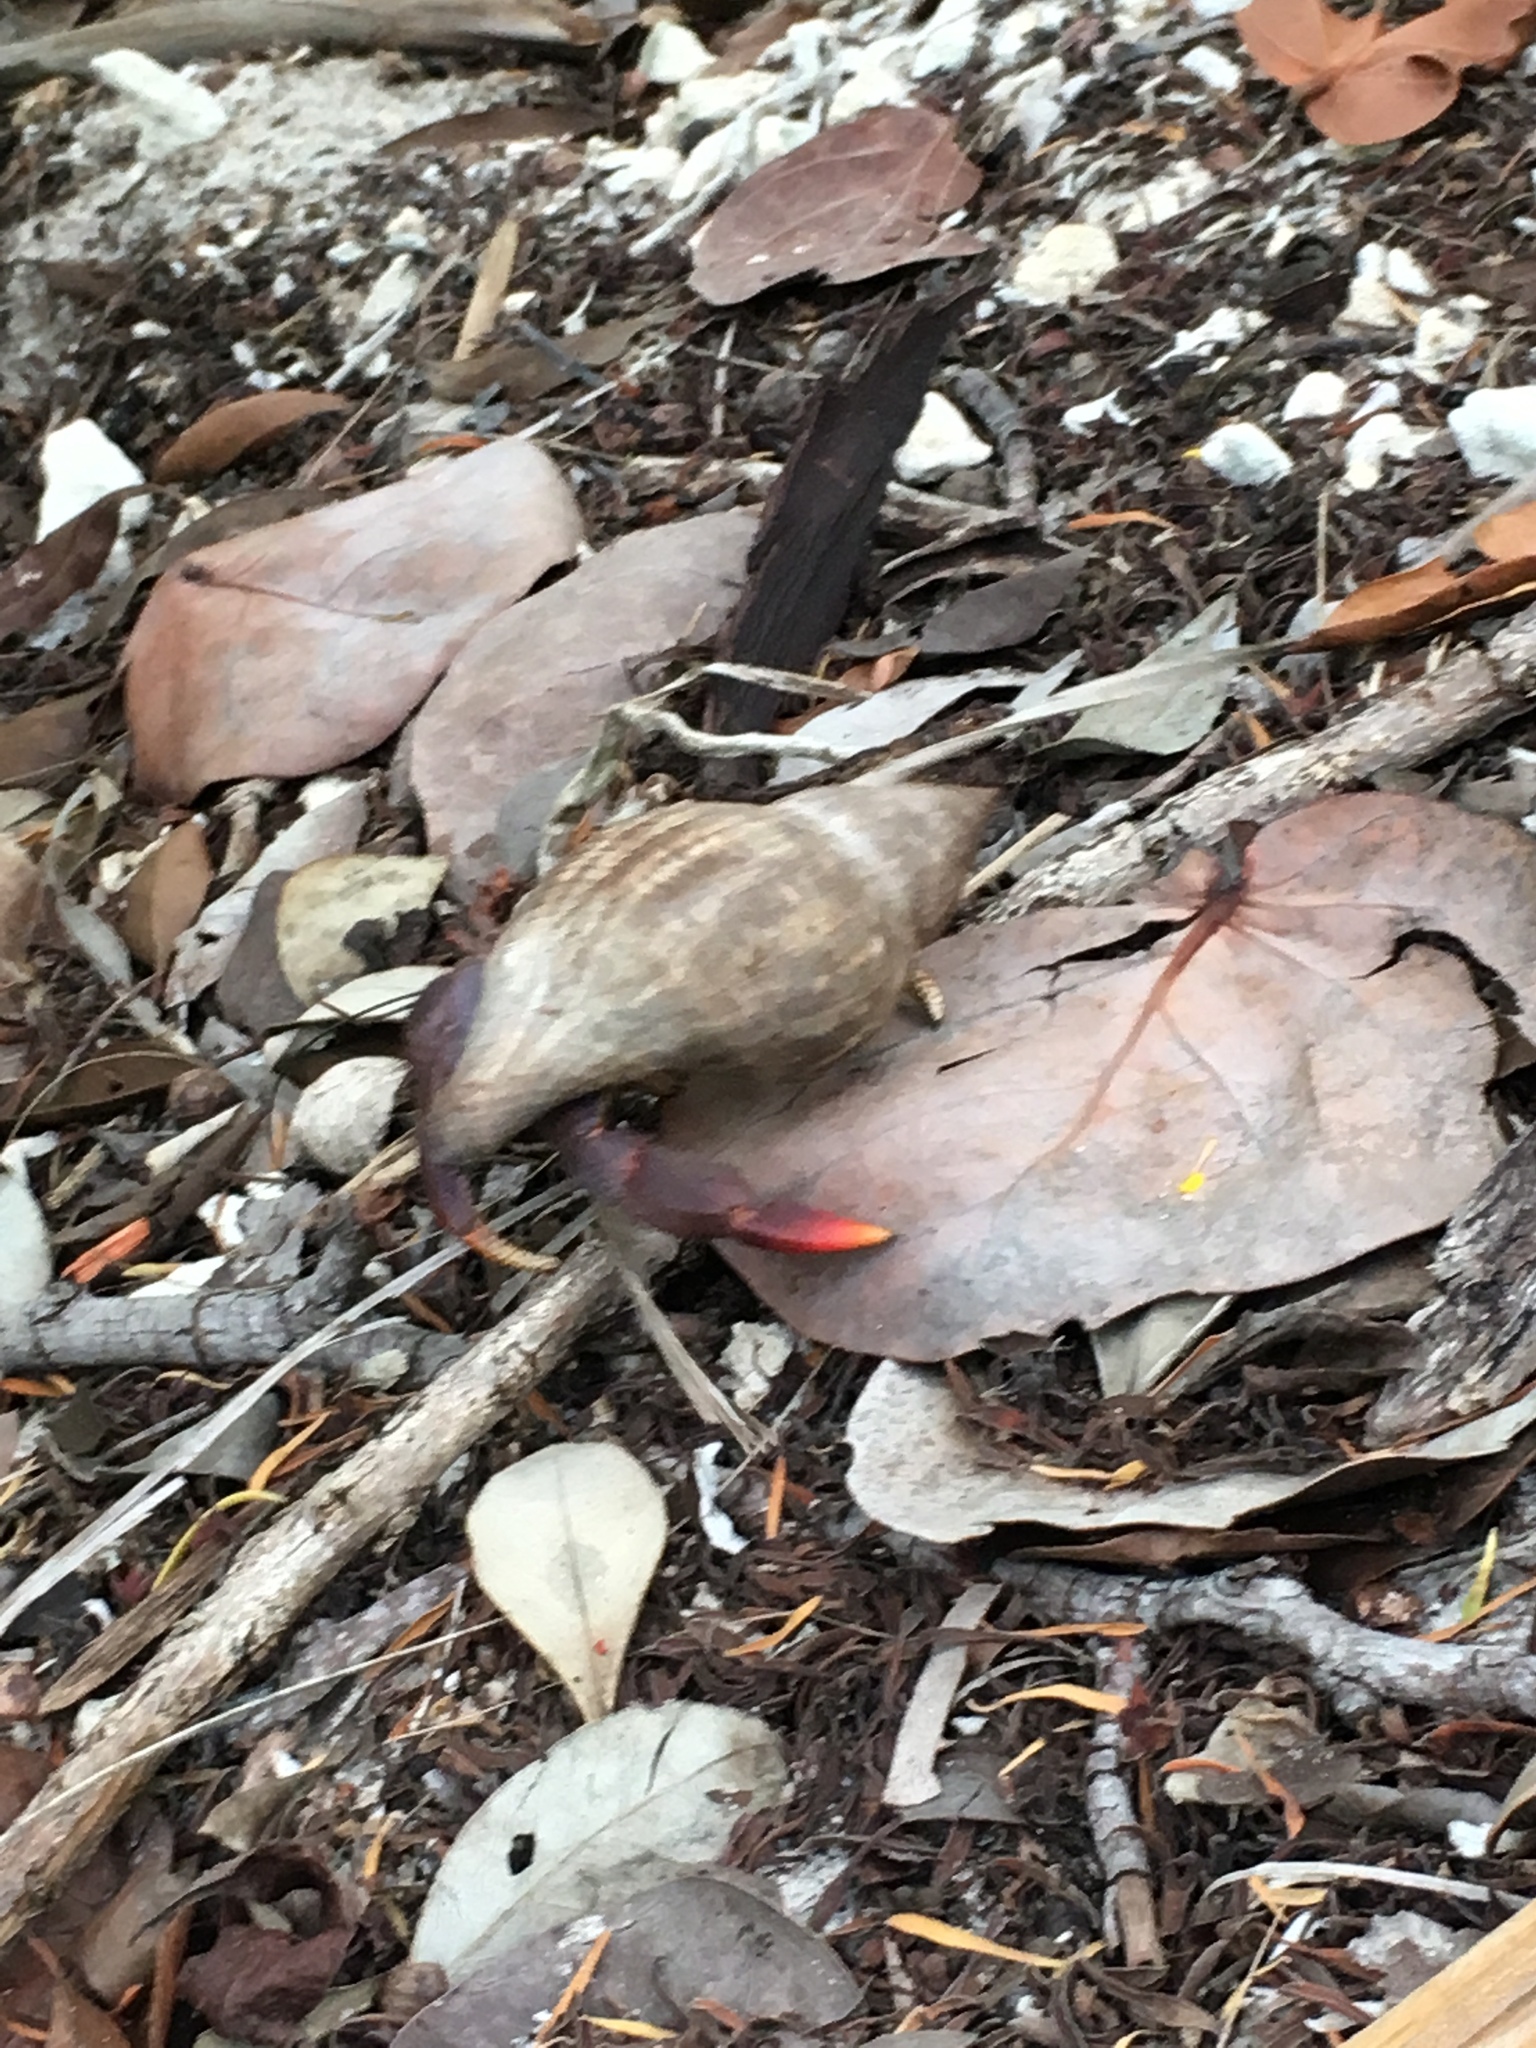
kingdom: Animalia
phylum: Arthropoda
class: Malacostraca
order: Decapoda
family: Coenobitidae
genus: Coenobita
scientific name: Coenobita clypeatus
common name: Caribbean hermit crab
